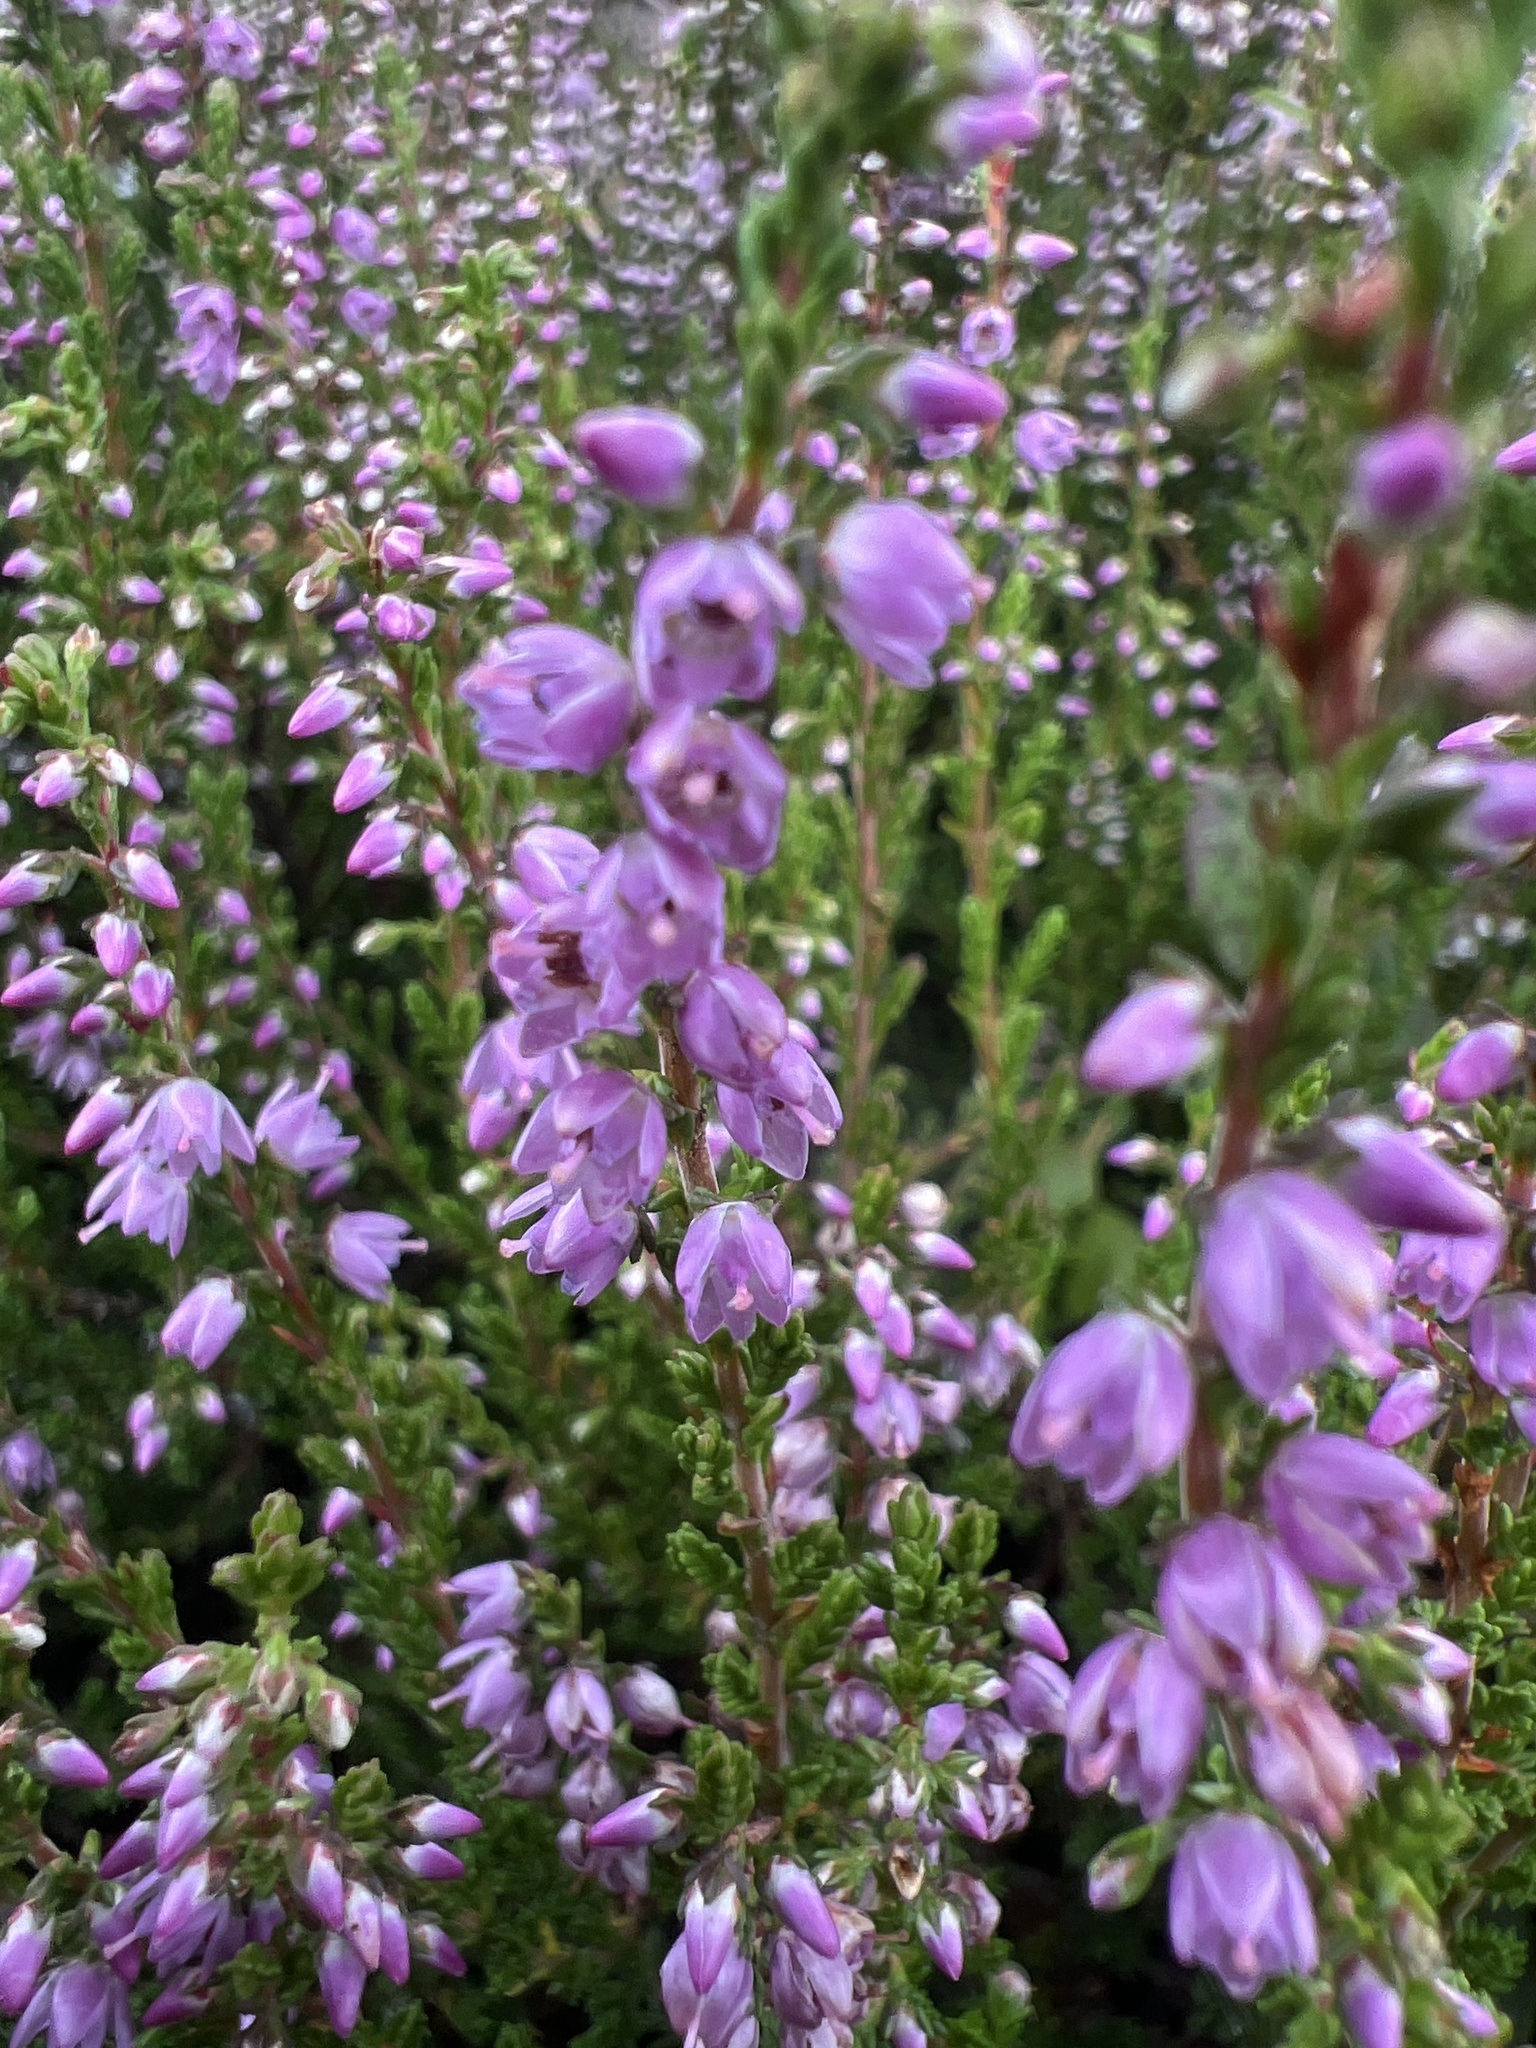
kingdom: Plantae
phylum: Tracheophyta
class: Magnoliopsida
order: Ericales
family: Ericaceae
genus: Calluna
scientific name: Calluna vulgaris
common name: Heather
